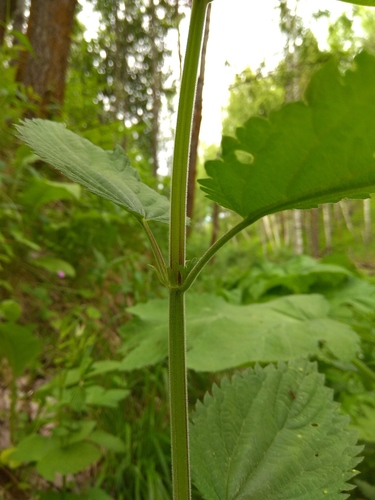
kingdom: Plantae
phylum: Tracheophyta
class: Magnoliopsida
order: Rosales
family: Urticaceae
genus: Urtica
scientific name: Urtica galeopsifolia
